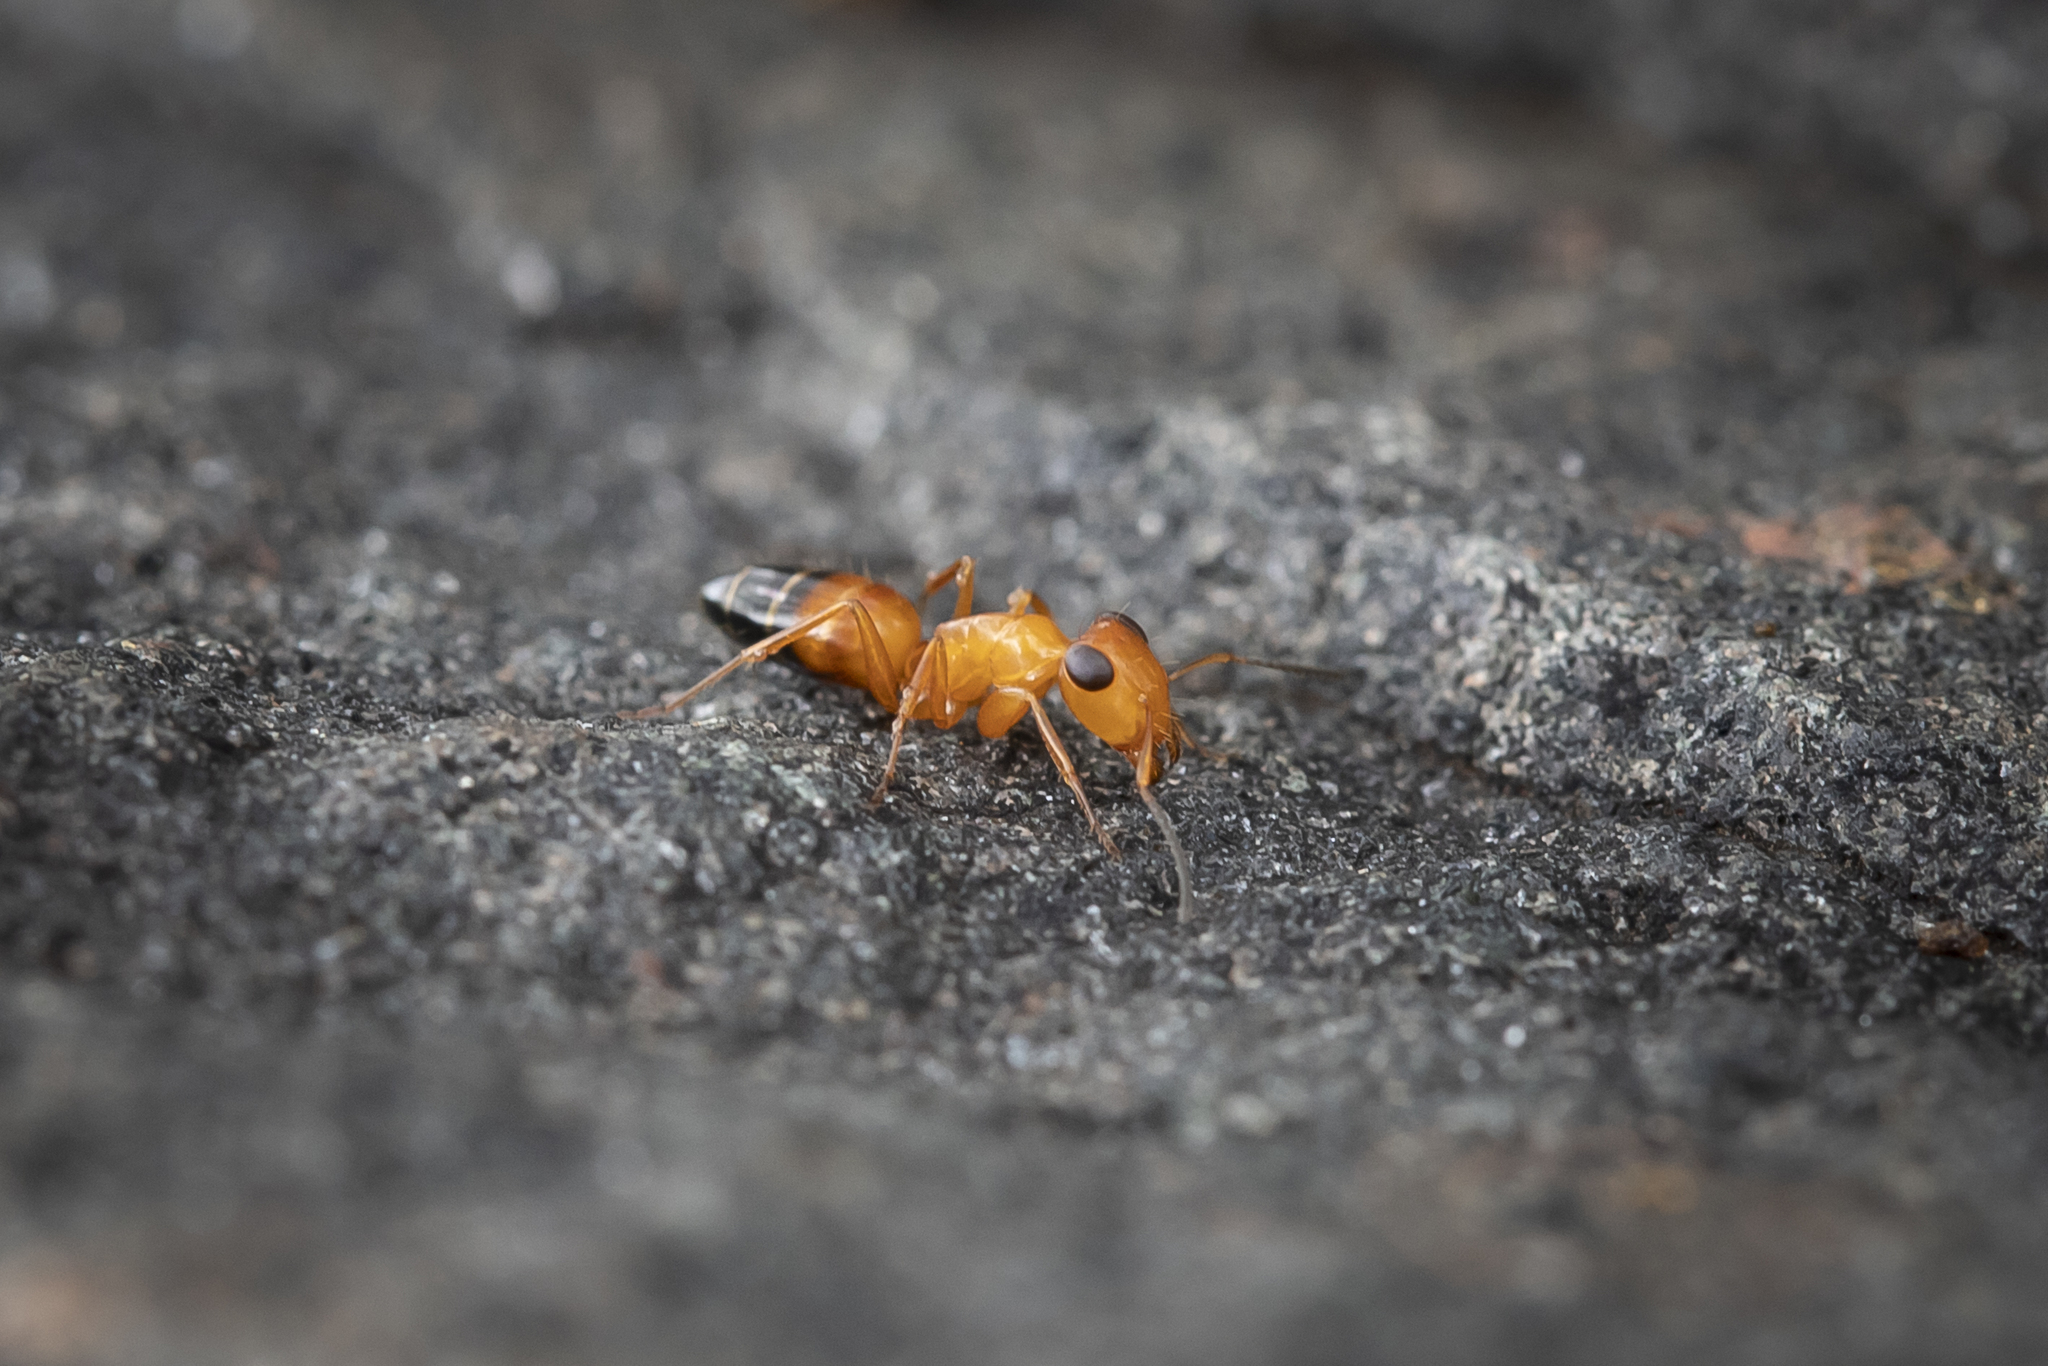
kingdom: Animalia
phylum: Arthropoda
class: Insecta
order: Hymenoptera
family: Formicidae
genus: Opisthopsis
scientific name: Opisthopsis haddoni
